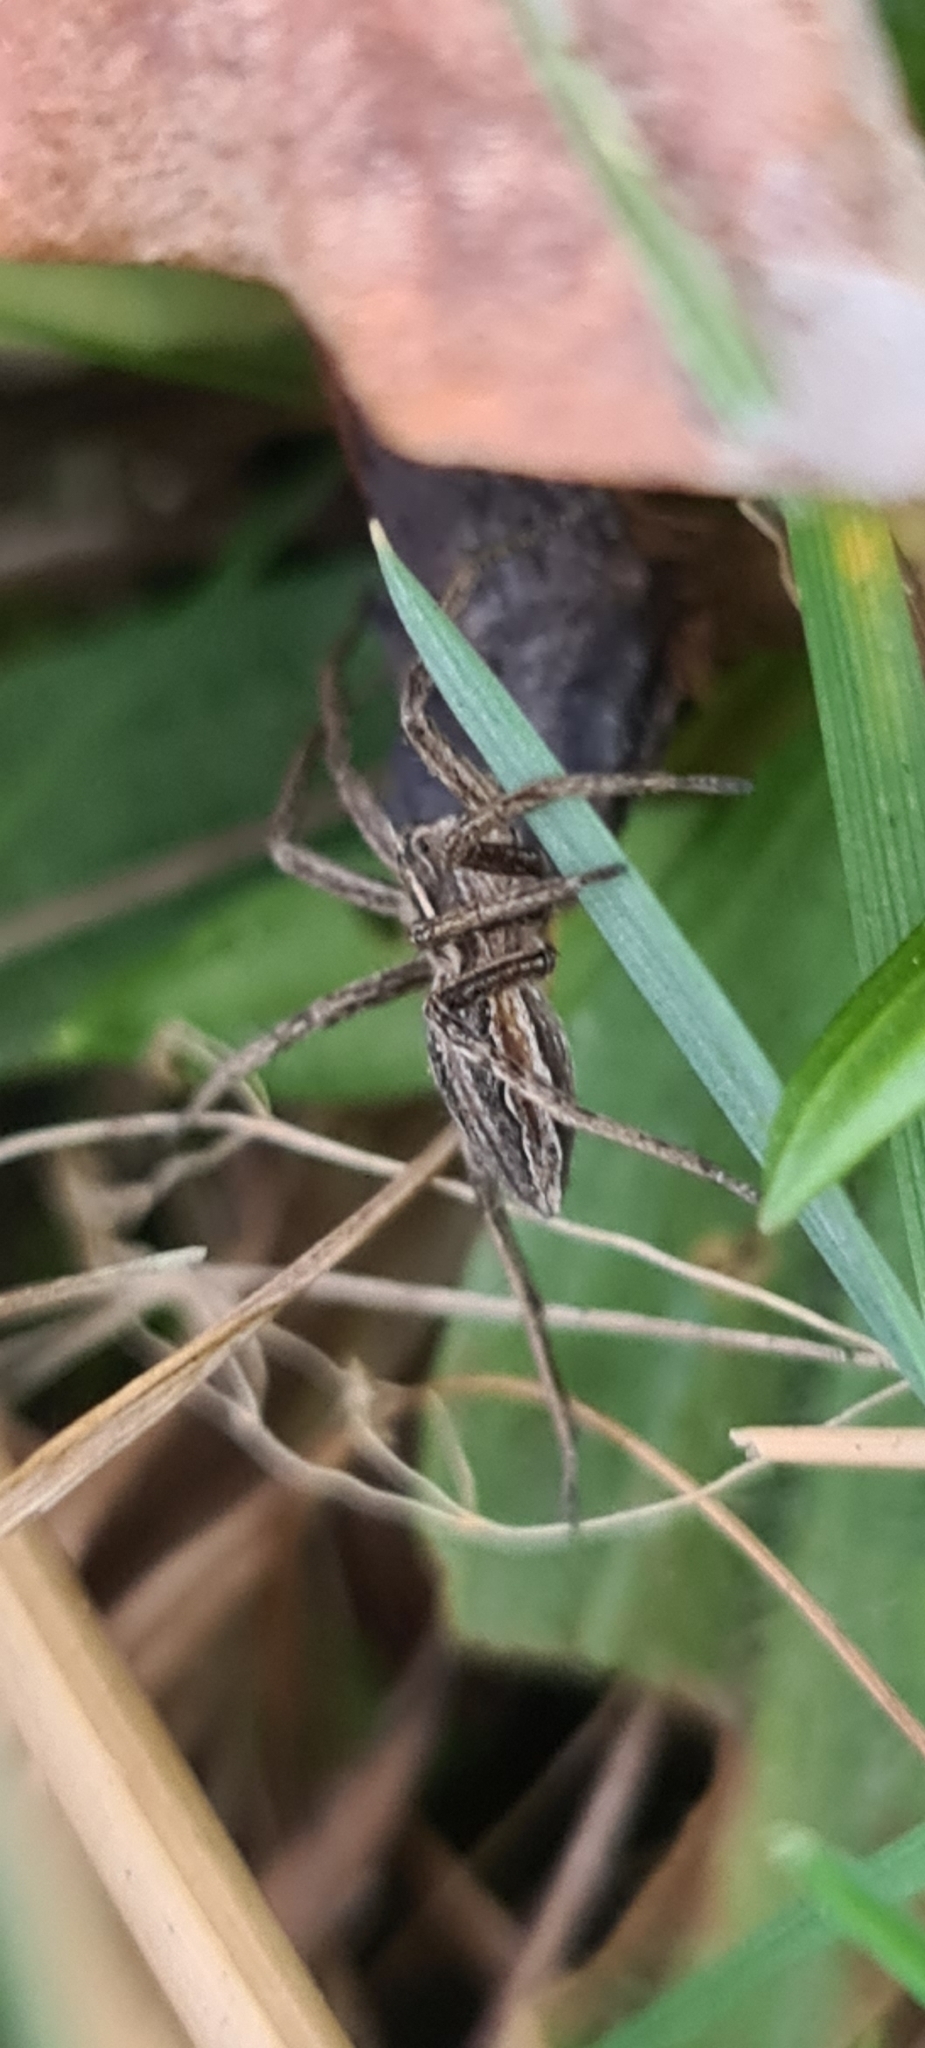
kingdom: Animalia
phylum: Arthropoda
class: Arachnida
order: Araneae
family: Pisauridae
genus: Pisaura
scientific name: Pisaura mirabilis
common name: Tent spider
